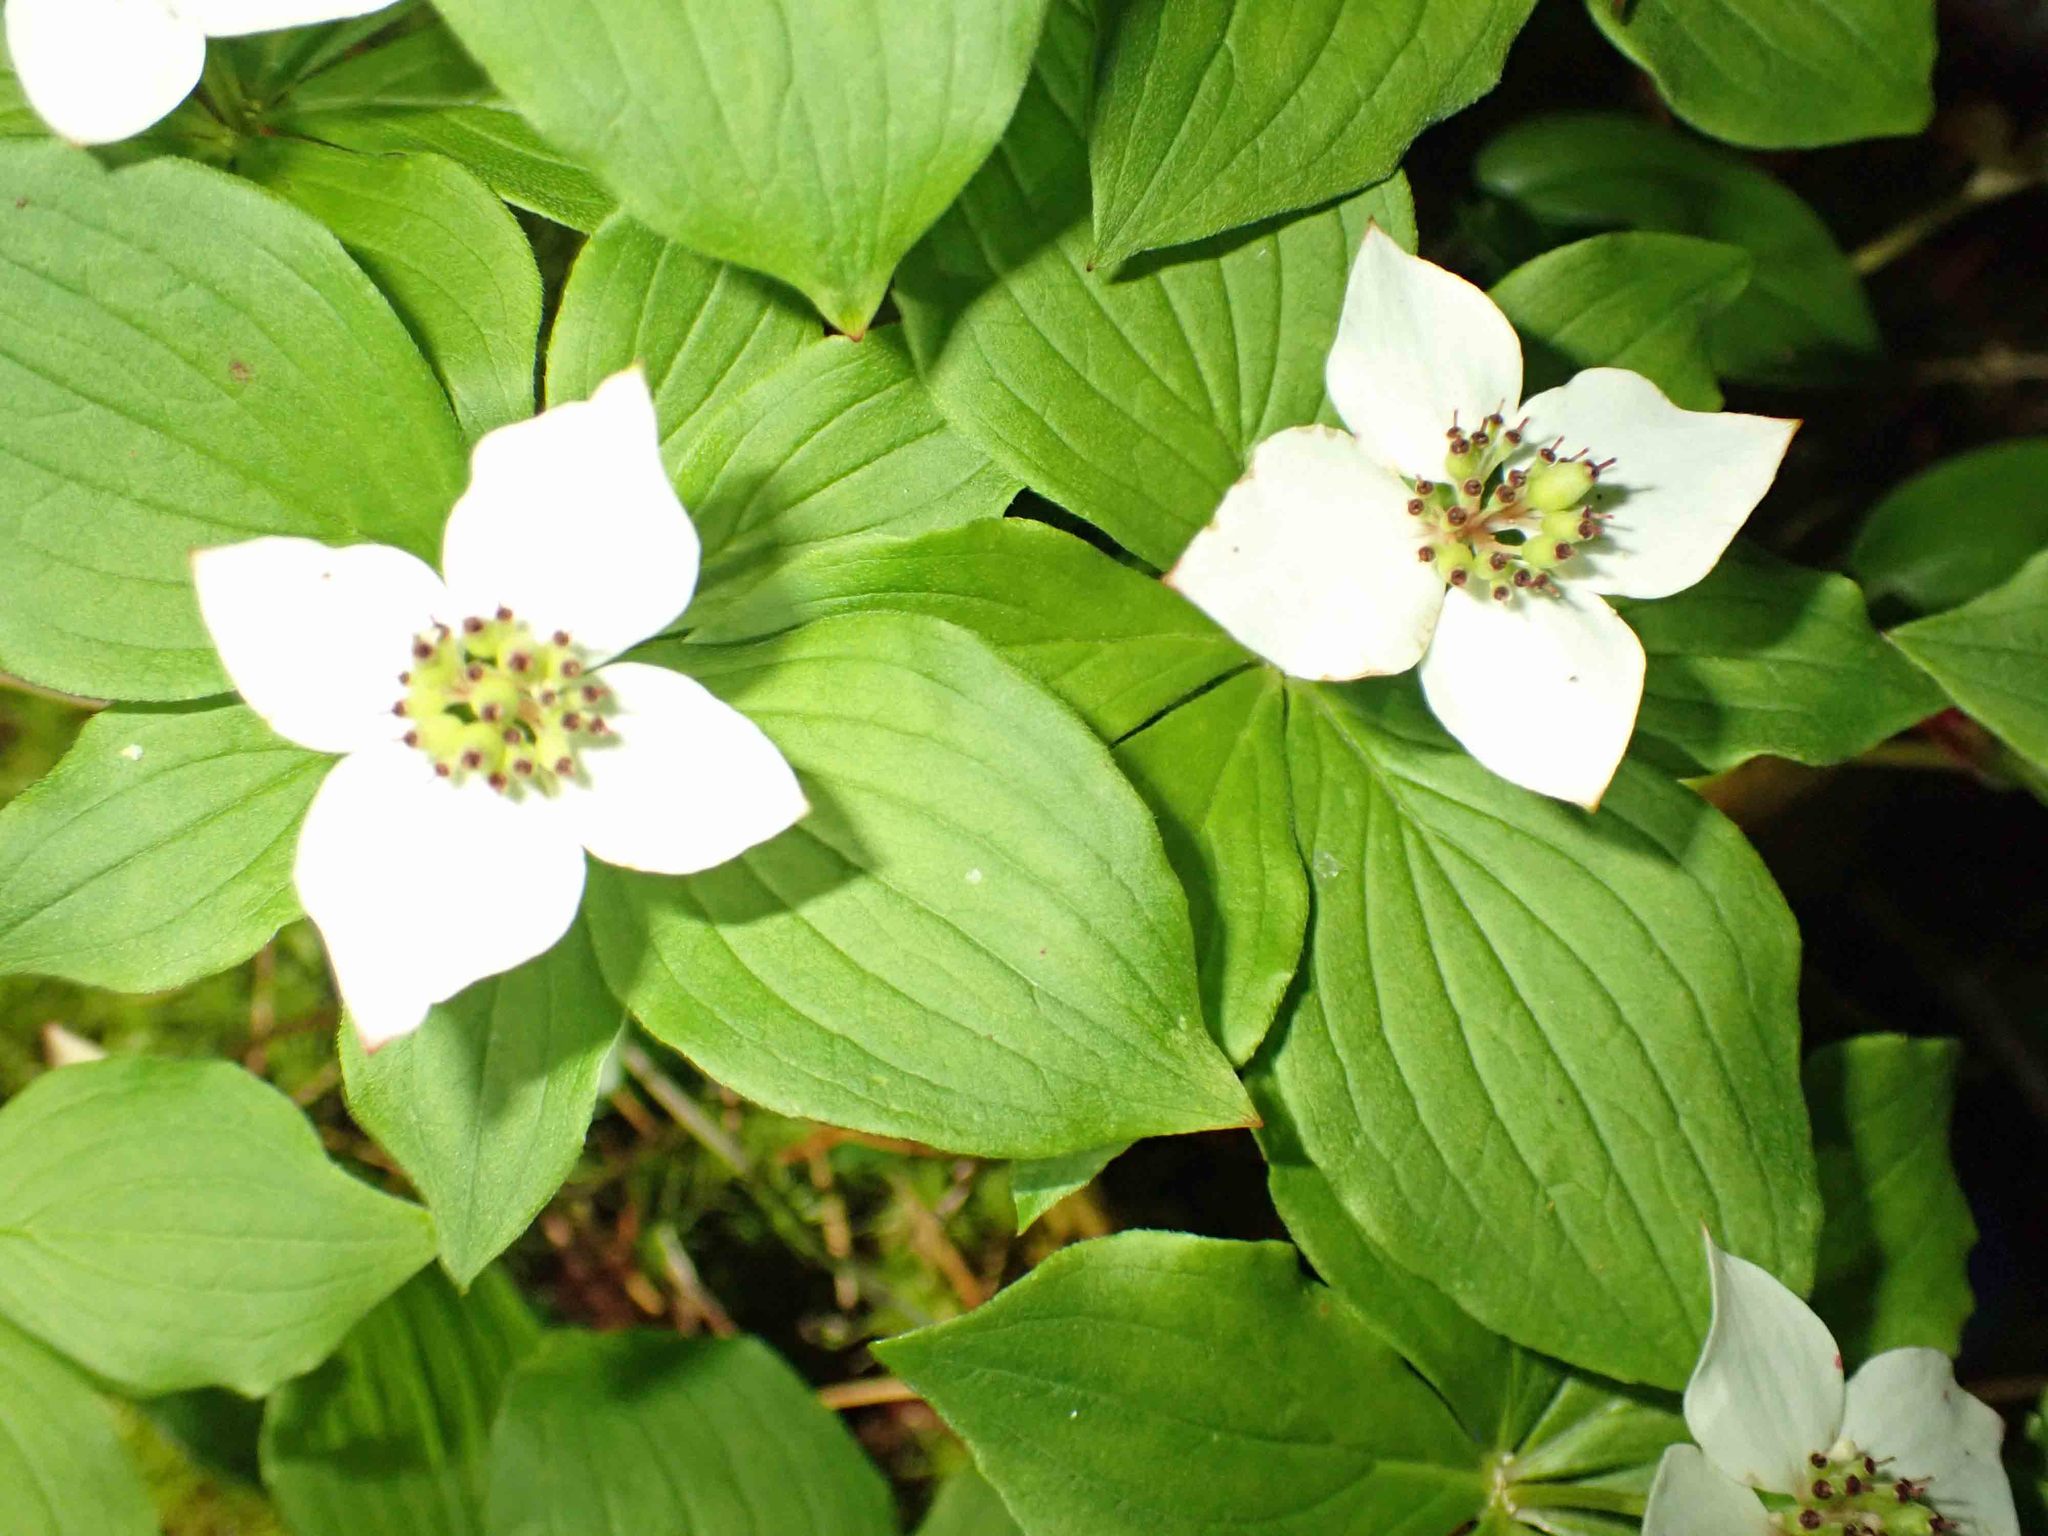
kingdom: Plantae
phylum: Tracheophyta
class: Magnoliopsida
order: Cornales
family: Cornaceae
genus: Cornus
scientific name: Cornus canadensis
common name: Creeping dogwood
